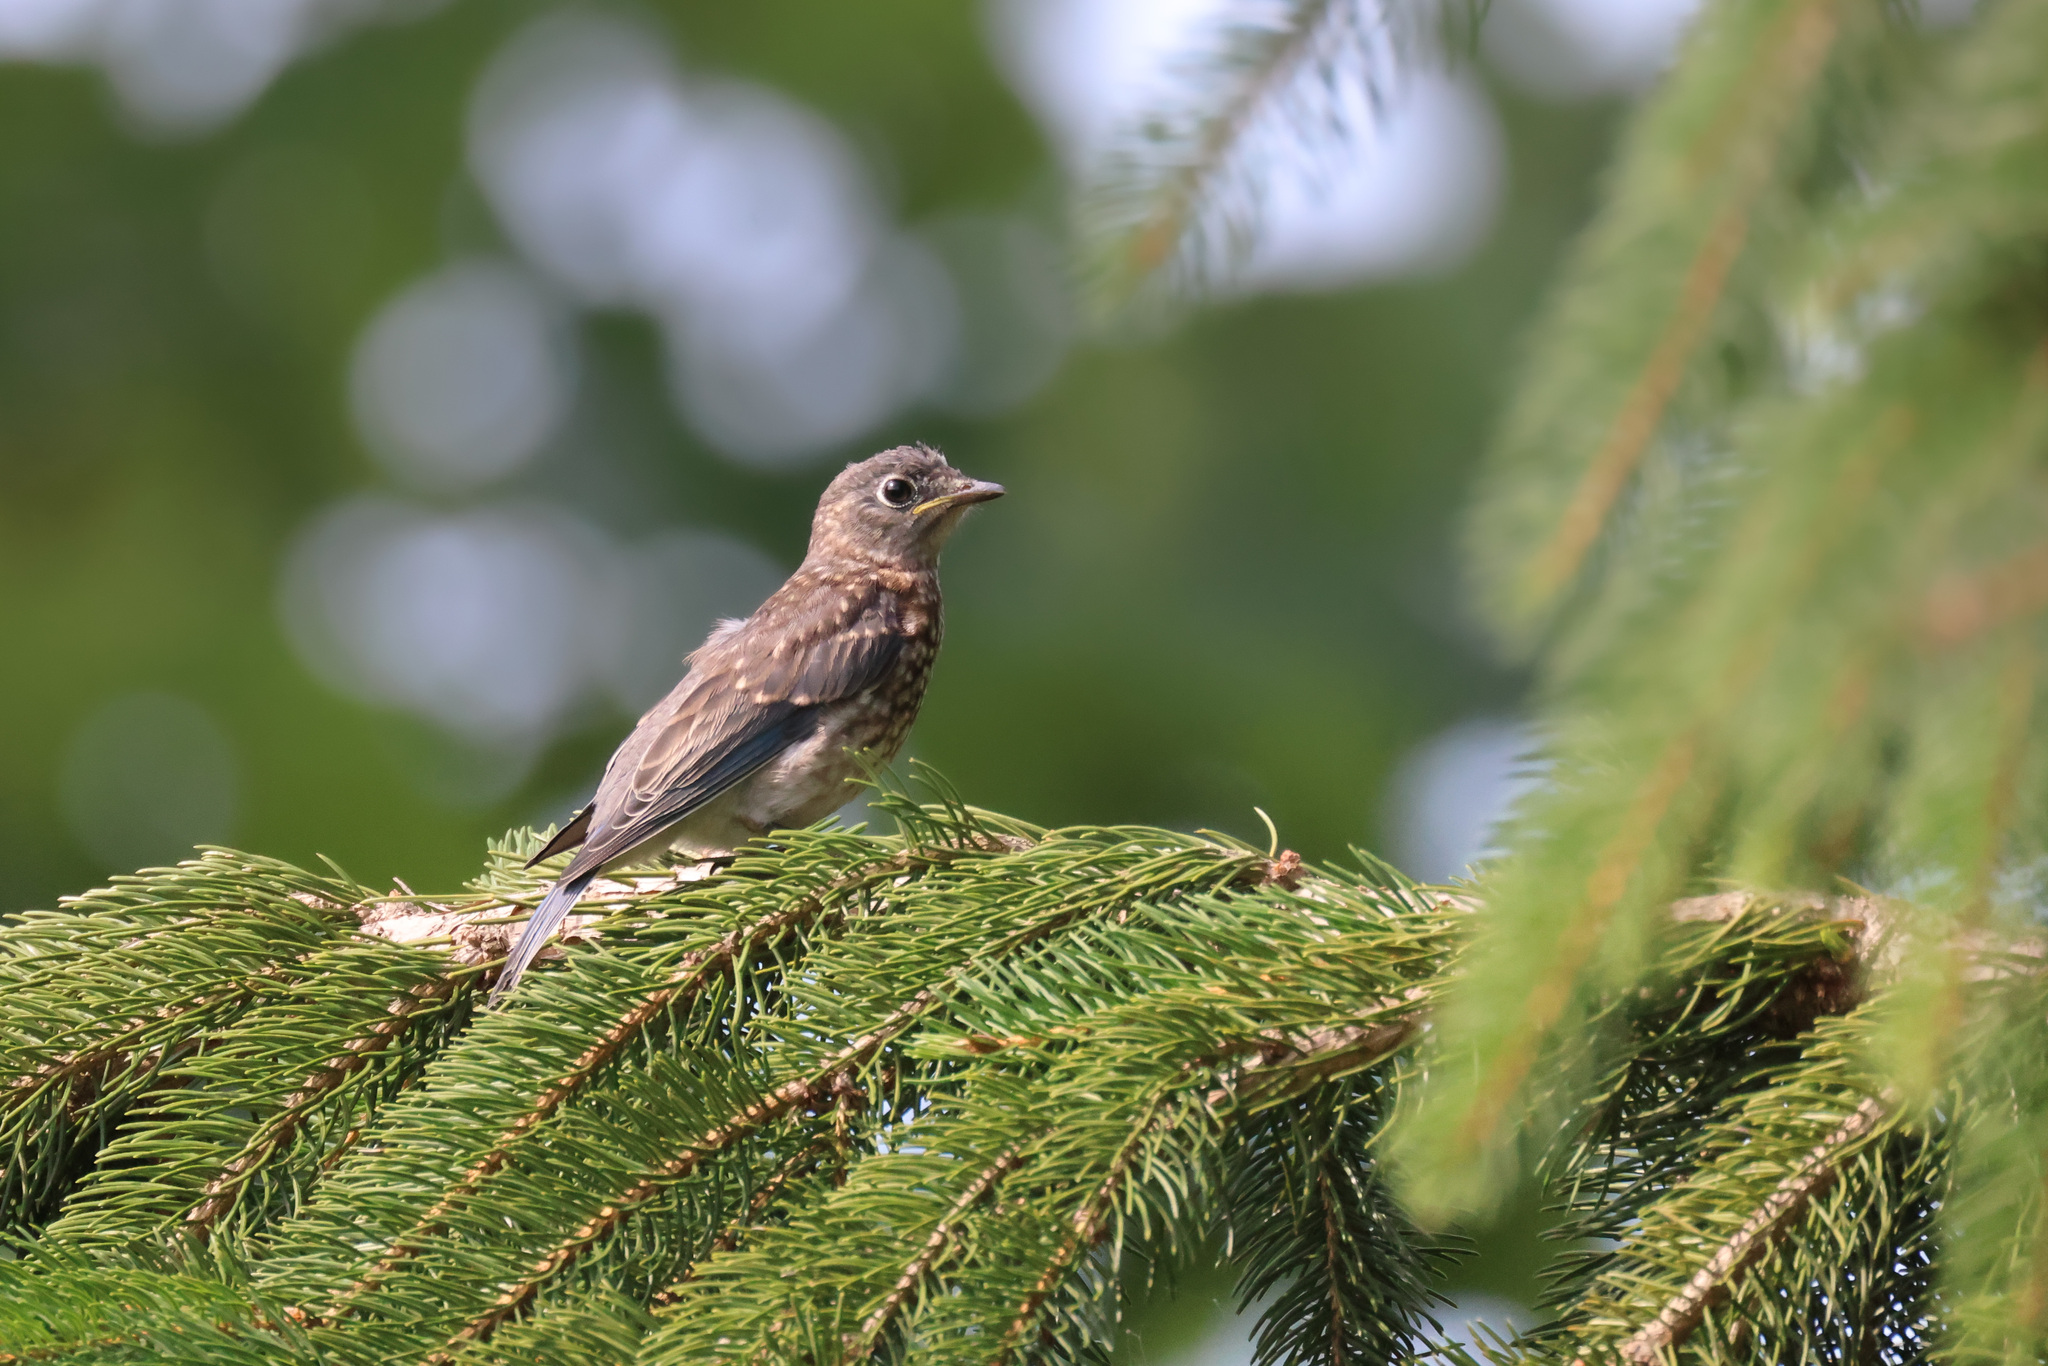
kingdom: Animalia
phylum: Chordata
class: Aves
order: Passeriformes
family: Turdidae
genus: Sialia
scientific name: Sialia sialis
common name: Eastern bluebird
